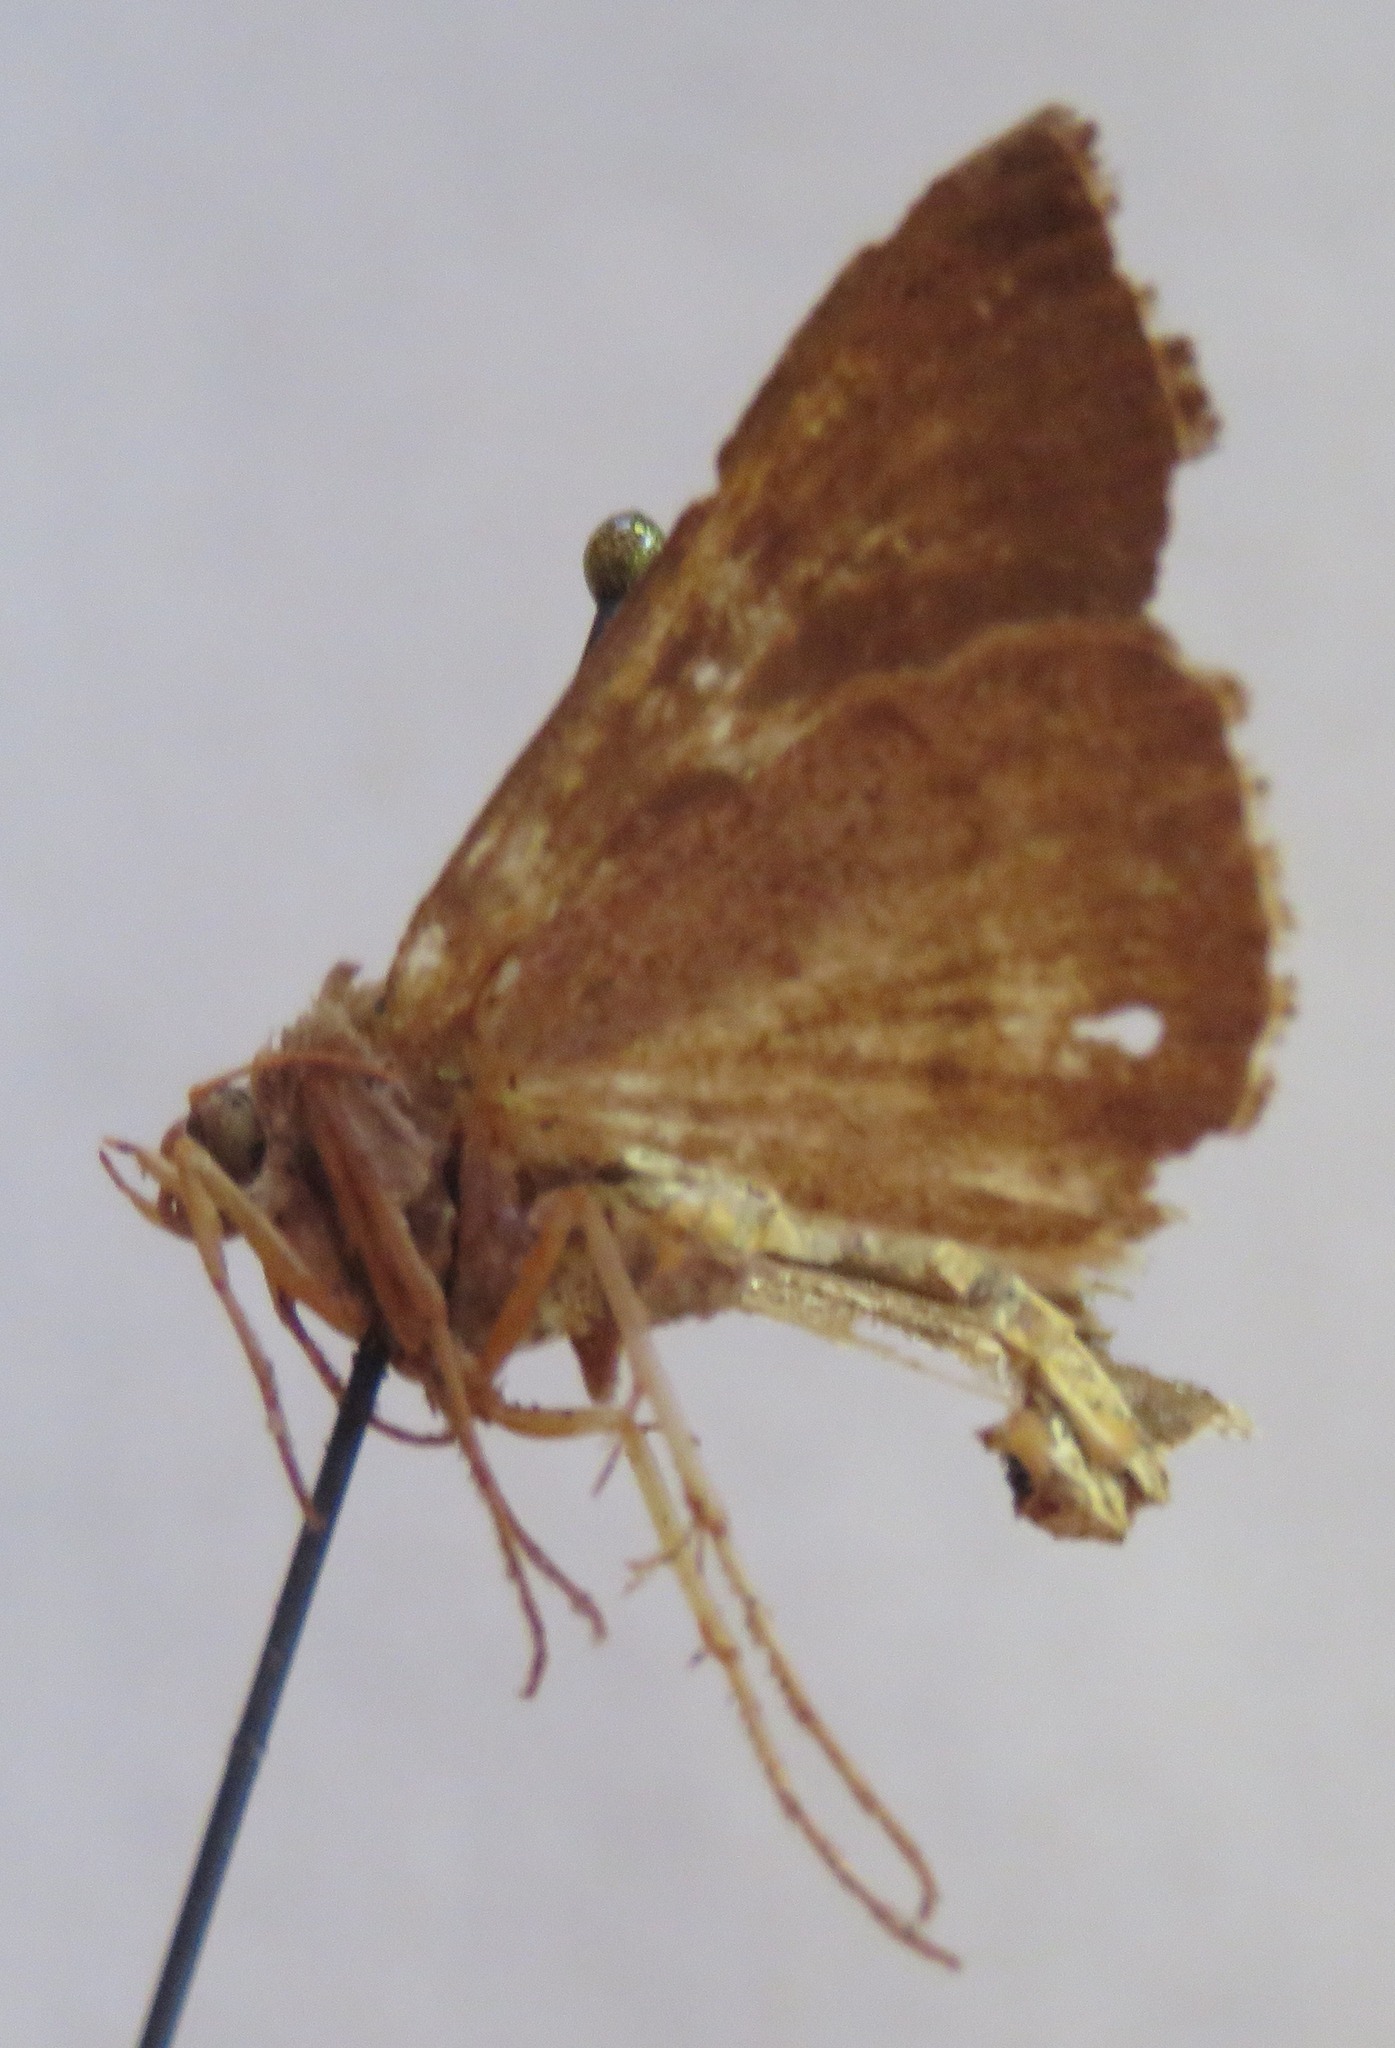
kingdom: Animalia
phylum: Arthropoda
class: Insecta
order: Lepidoptera
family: Noctuidae
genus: Macdunnoughia
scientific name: Macdunnoughia confusa
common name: Dewick's plusia
